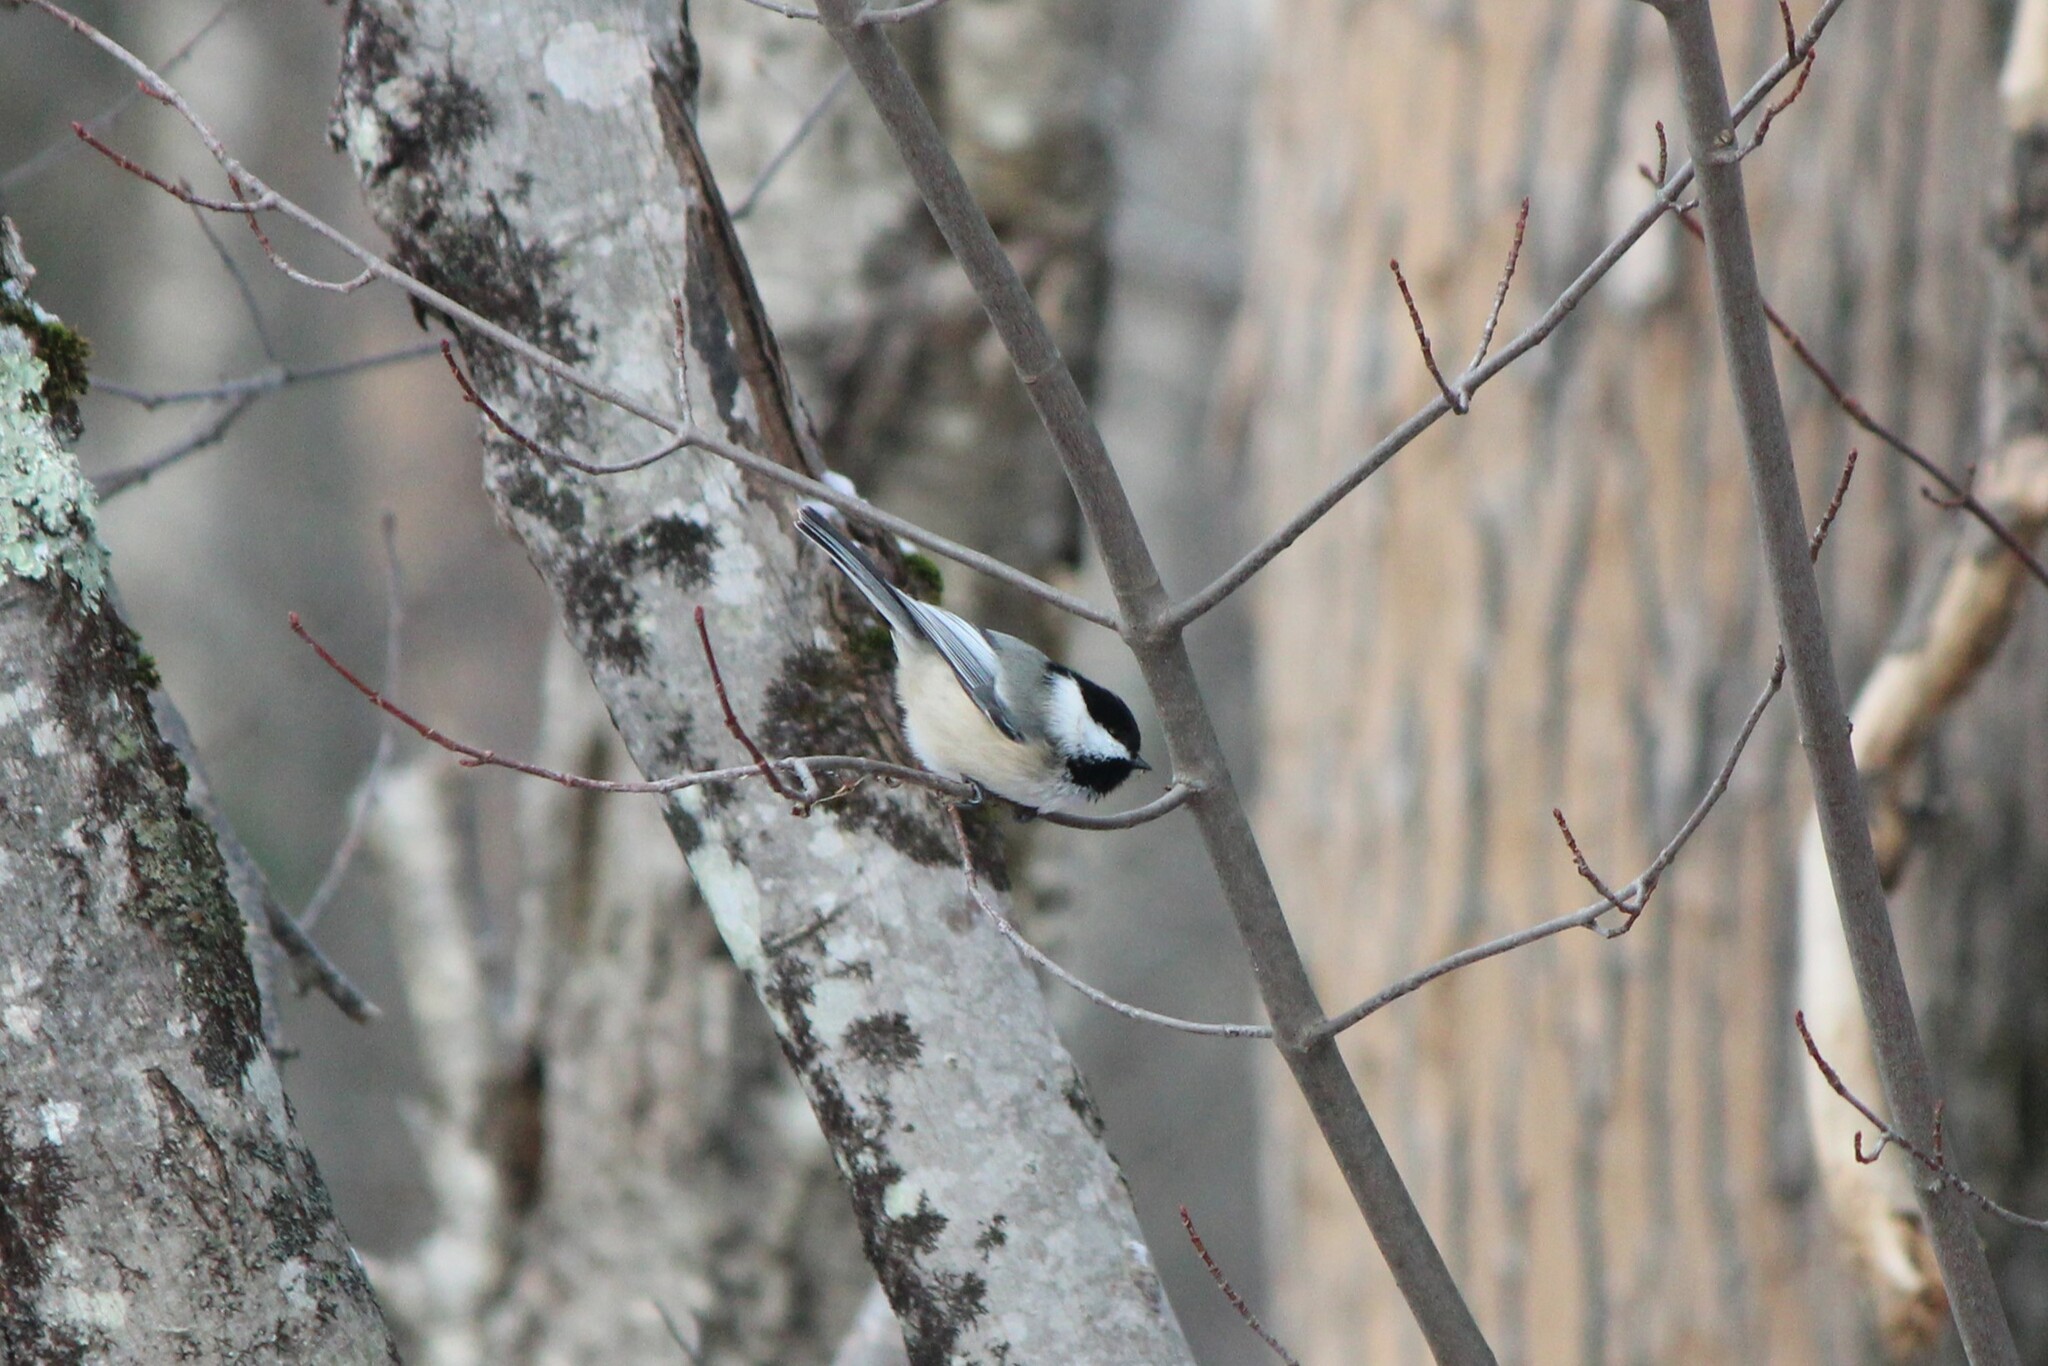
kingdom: Animalia
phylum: Chordata
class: Aves
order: Passeriformes
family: Paridae
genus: Poecile
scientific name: Poecile atricapillus
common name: Black-capped chickadee
